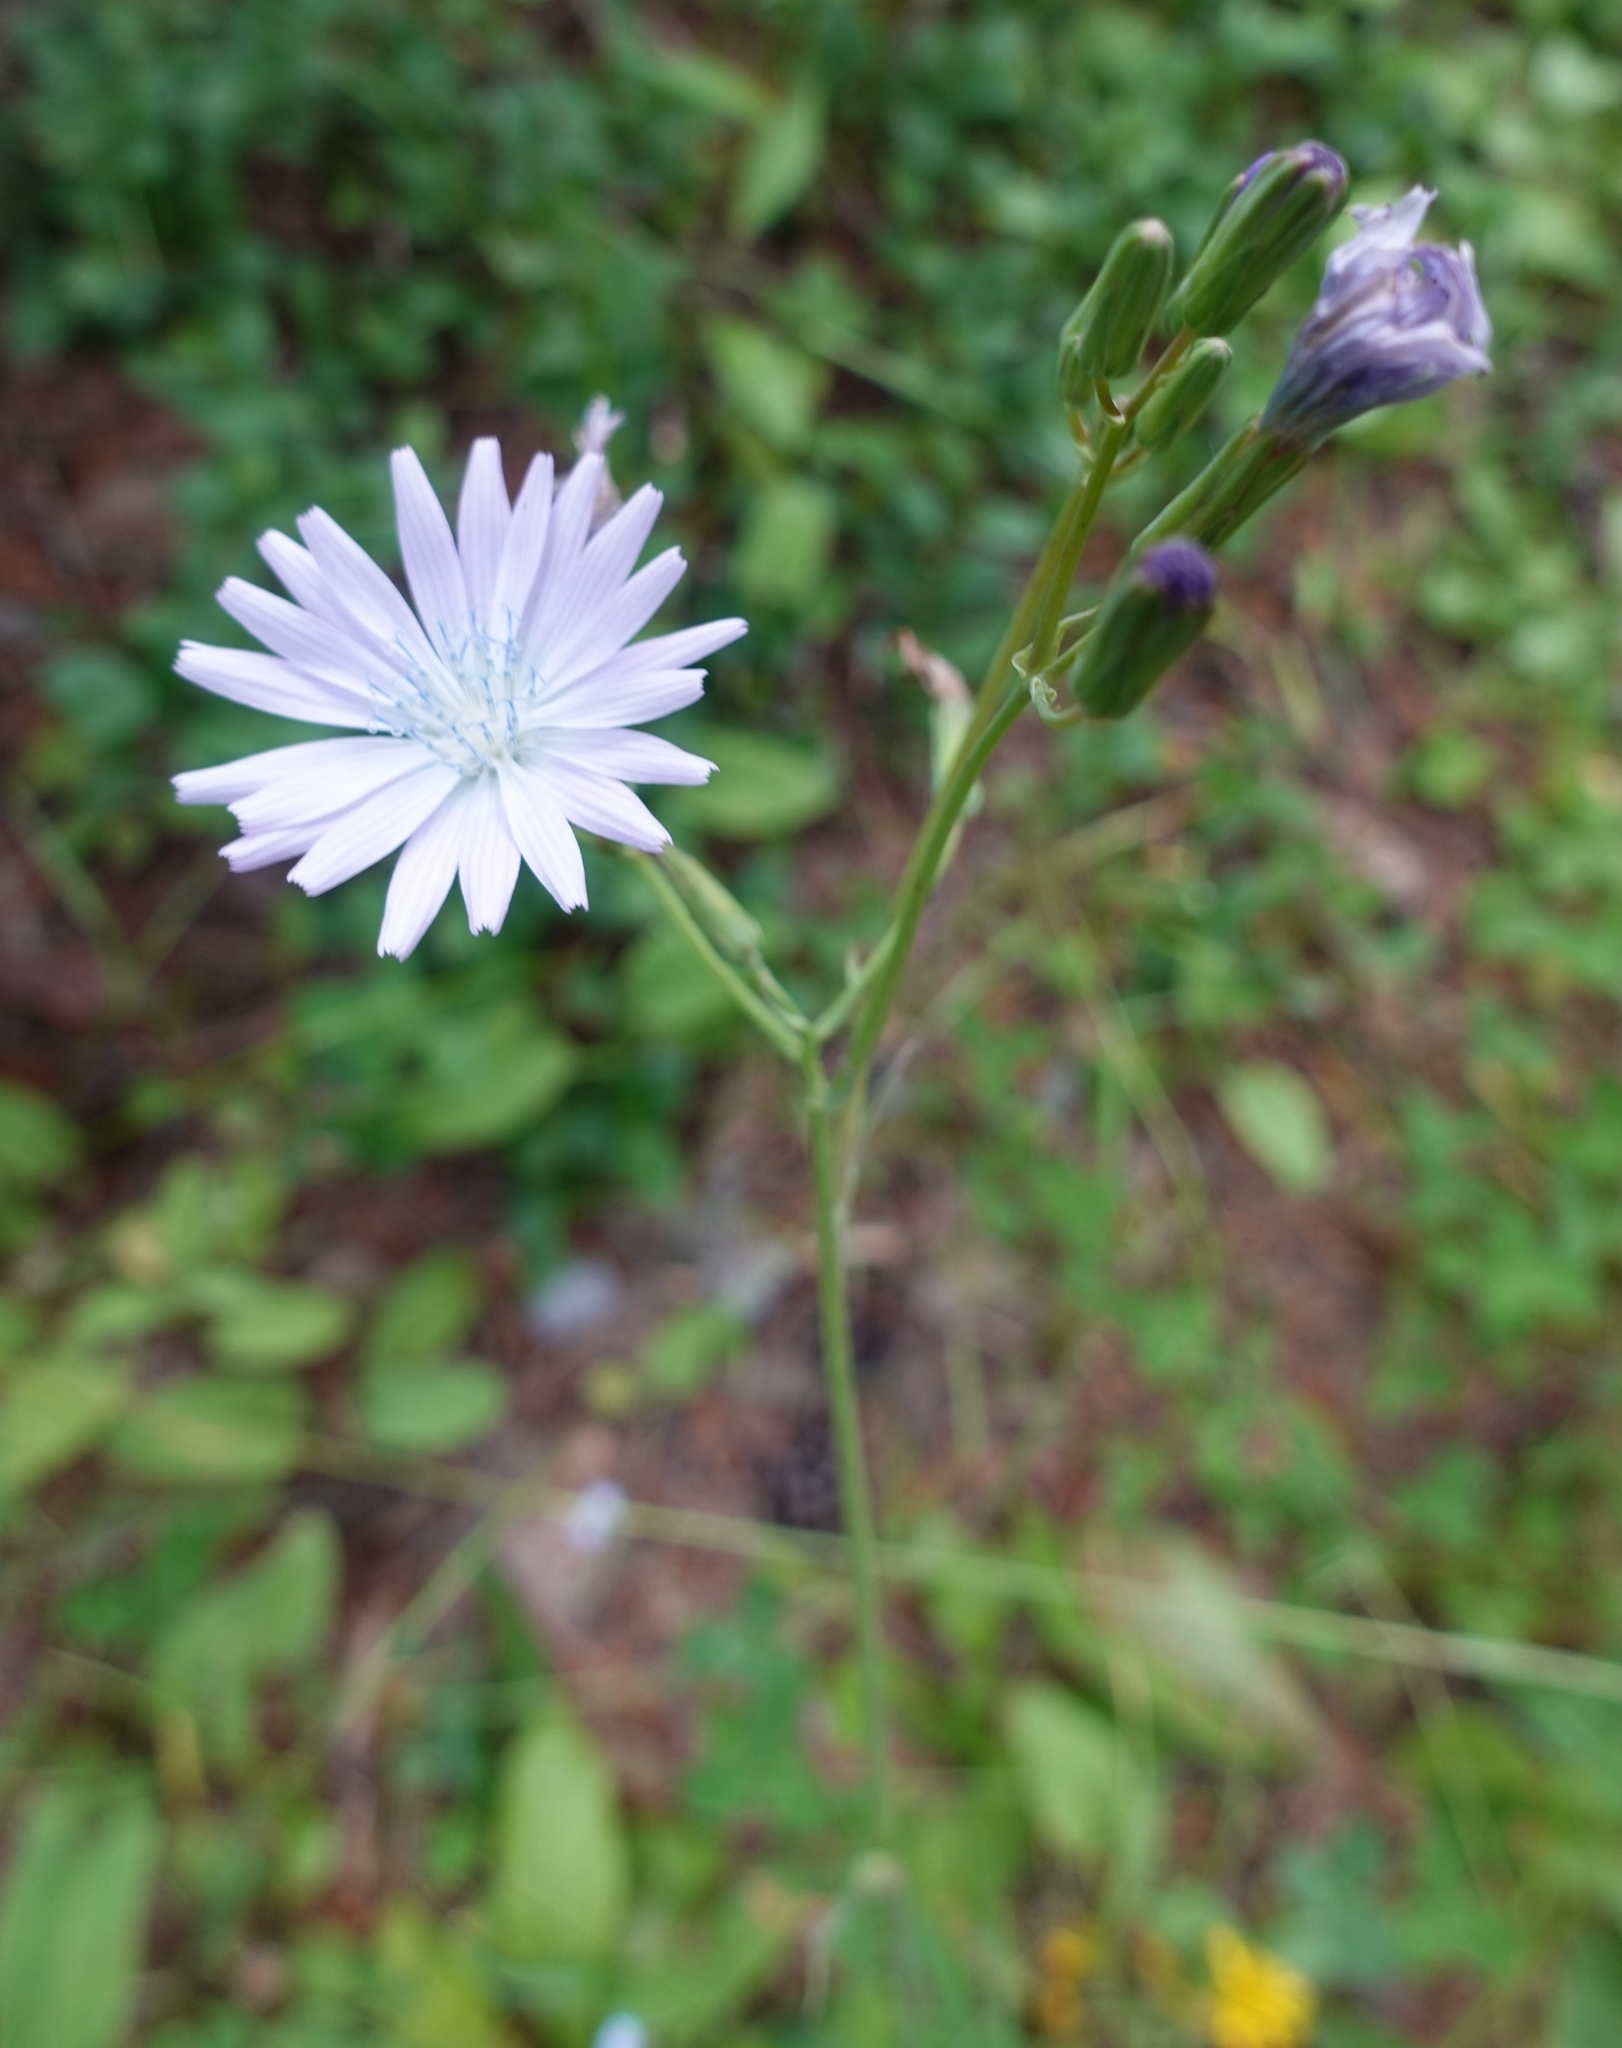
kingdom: Plantae
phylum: Tracheophyta
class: Magnoliopsida
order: Asterales
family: Asteraceae
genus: Lactuca
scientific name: Lactuca racemosa
